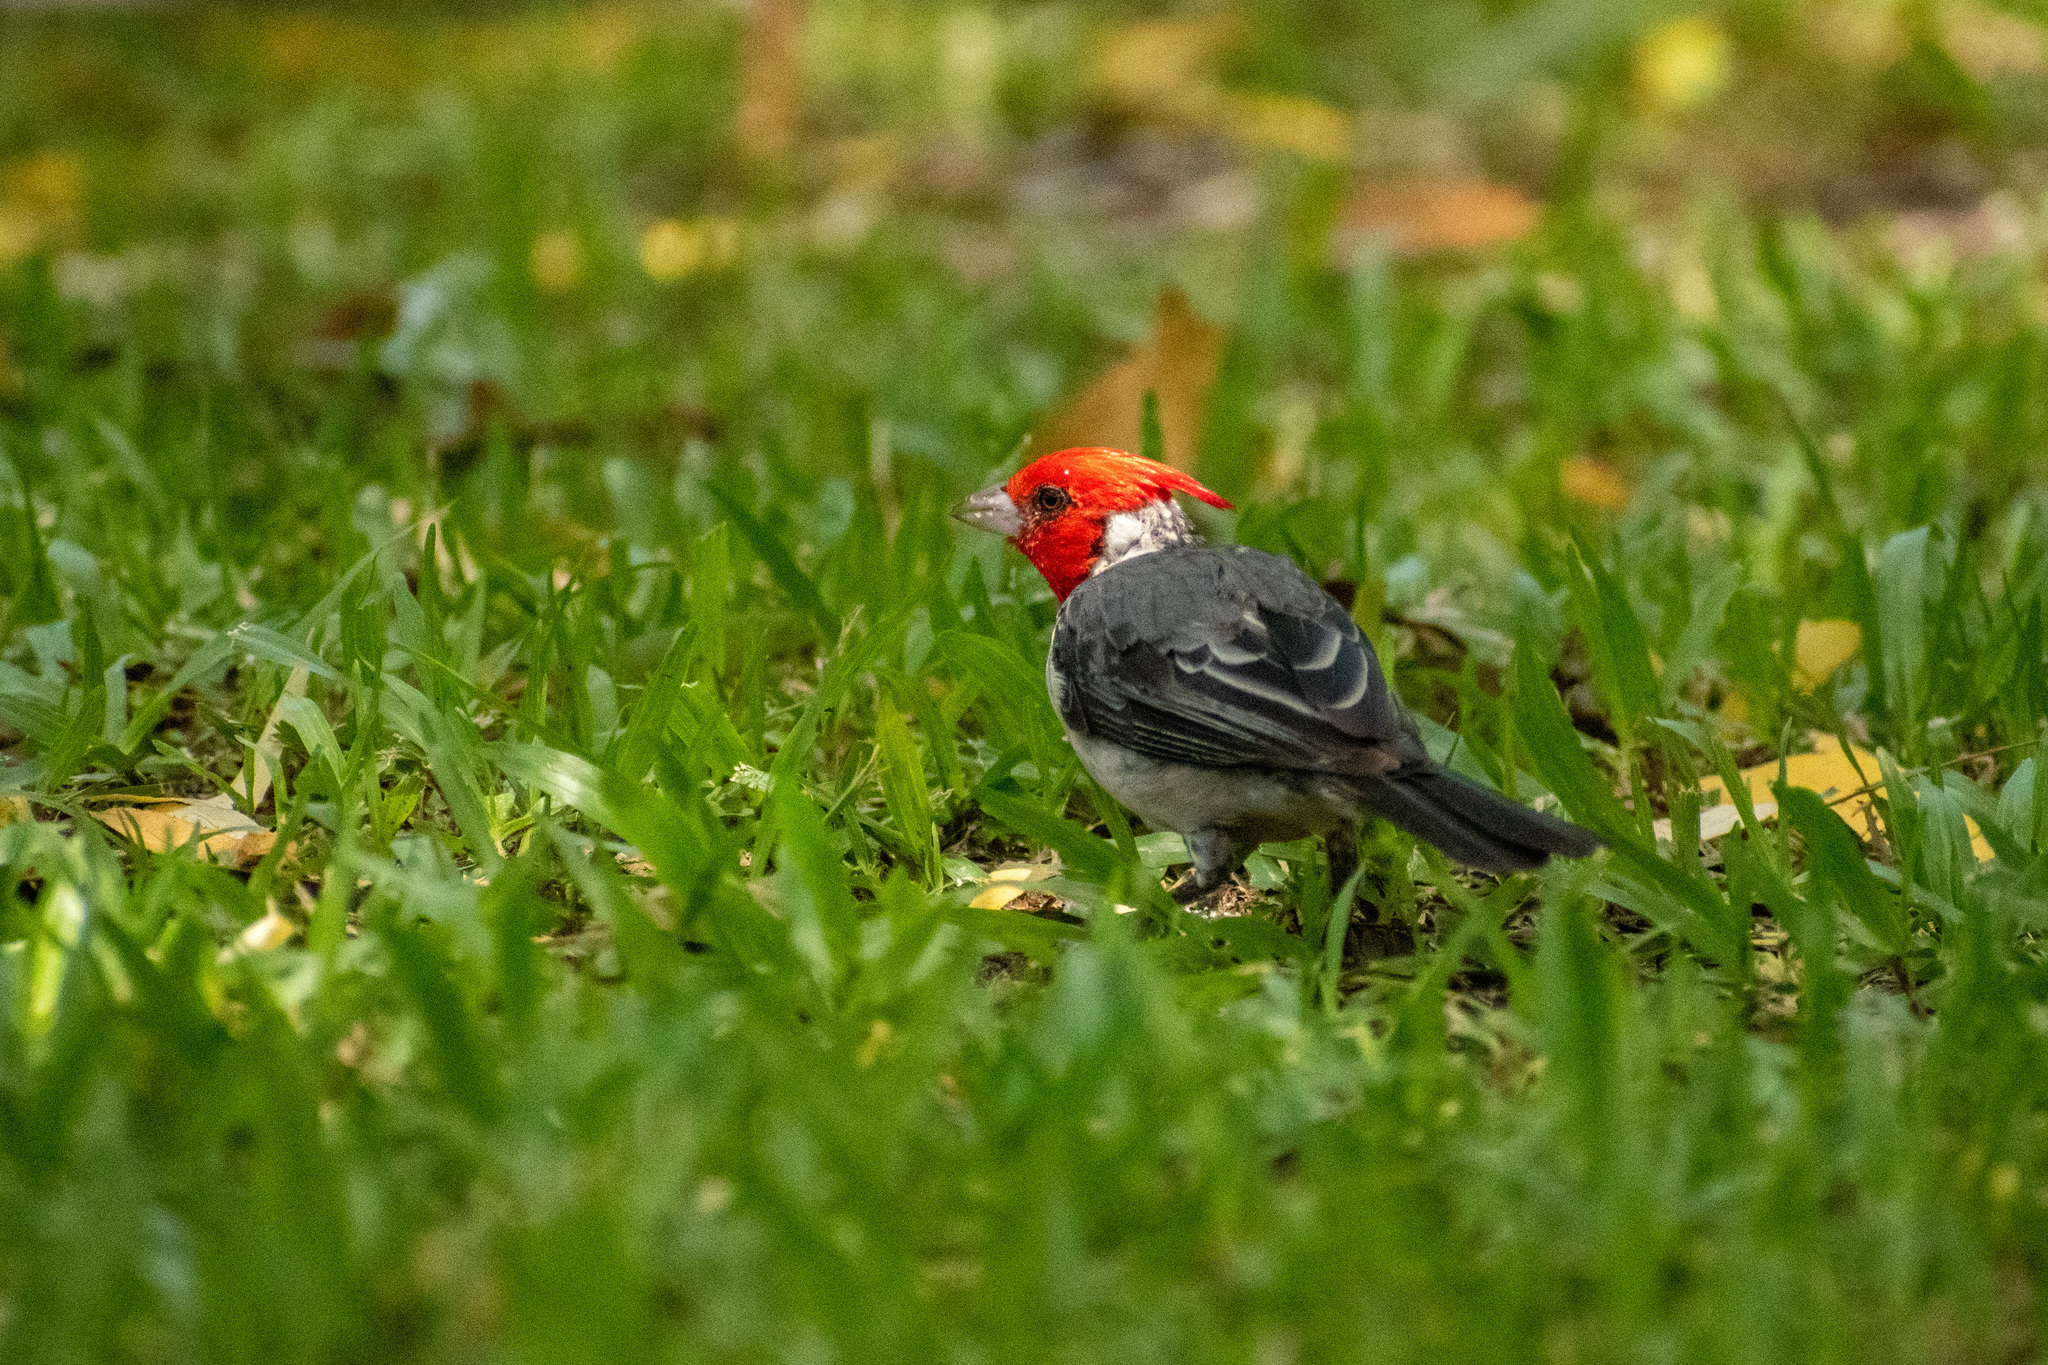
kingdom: Animalia
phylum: Chordata
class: Aves
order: Passeriformes
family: Thraupidae
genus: Paroaria
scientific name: Paroaria coronata
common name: Red-crested cardinal
